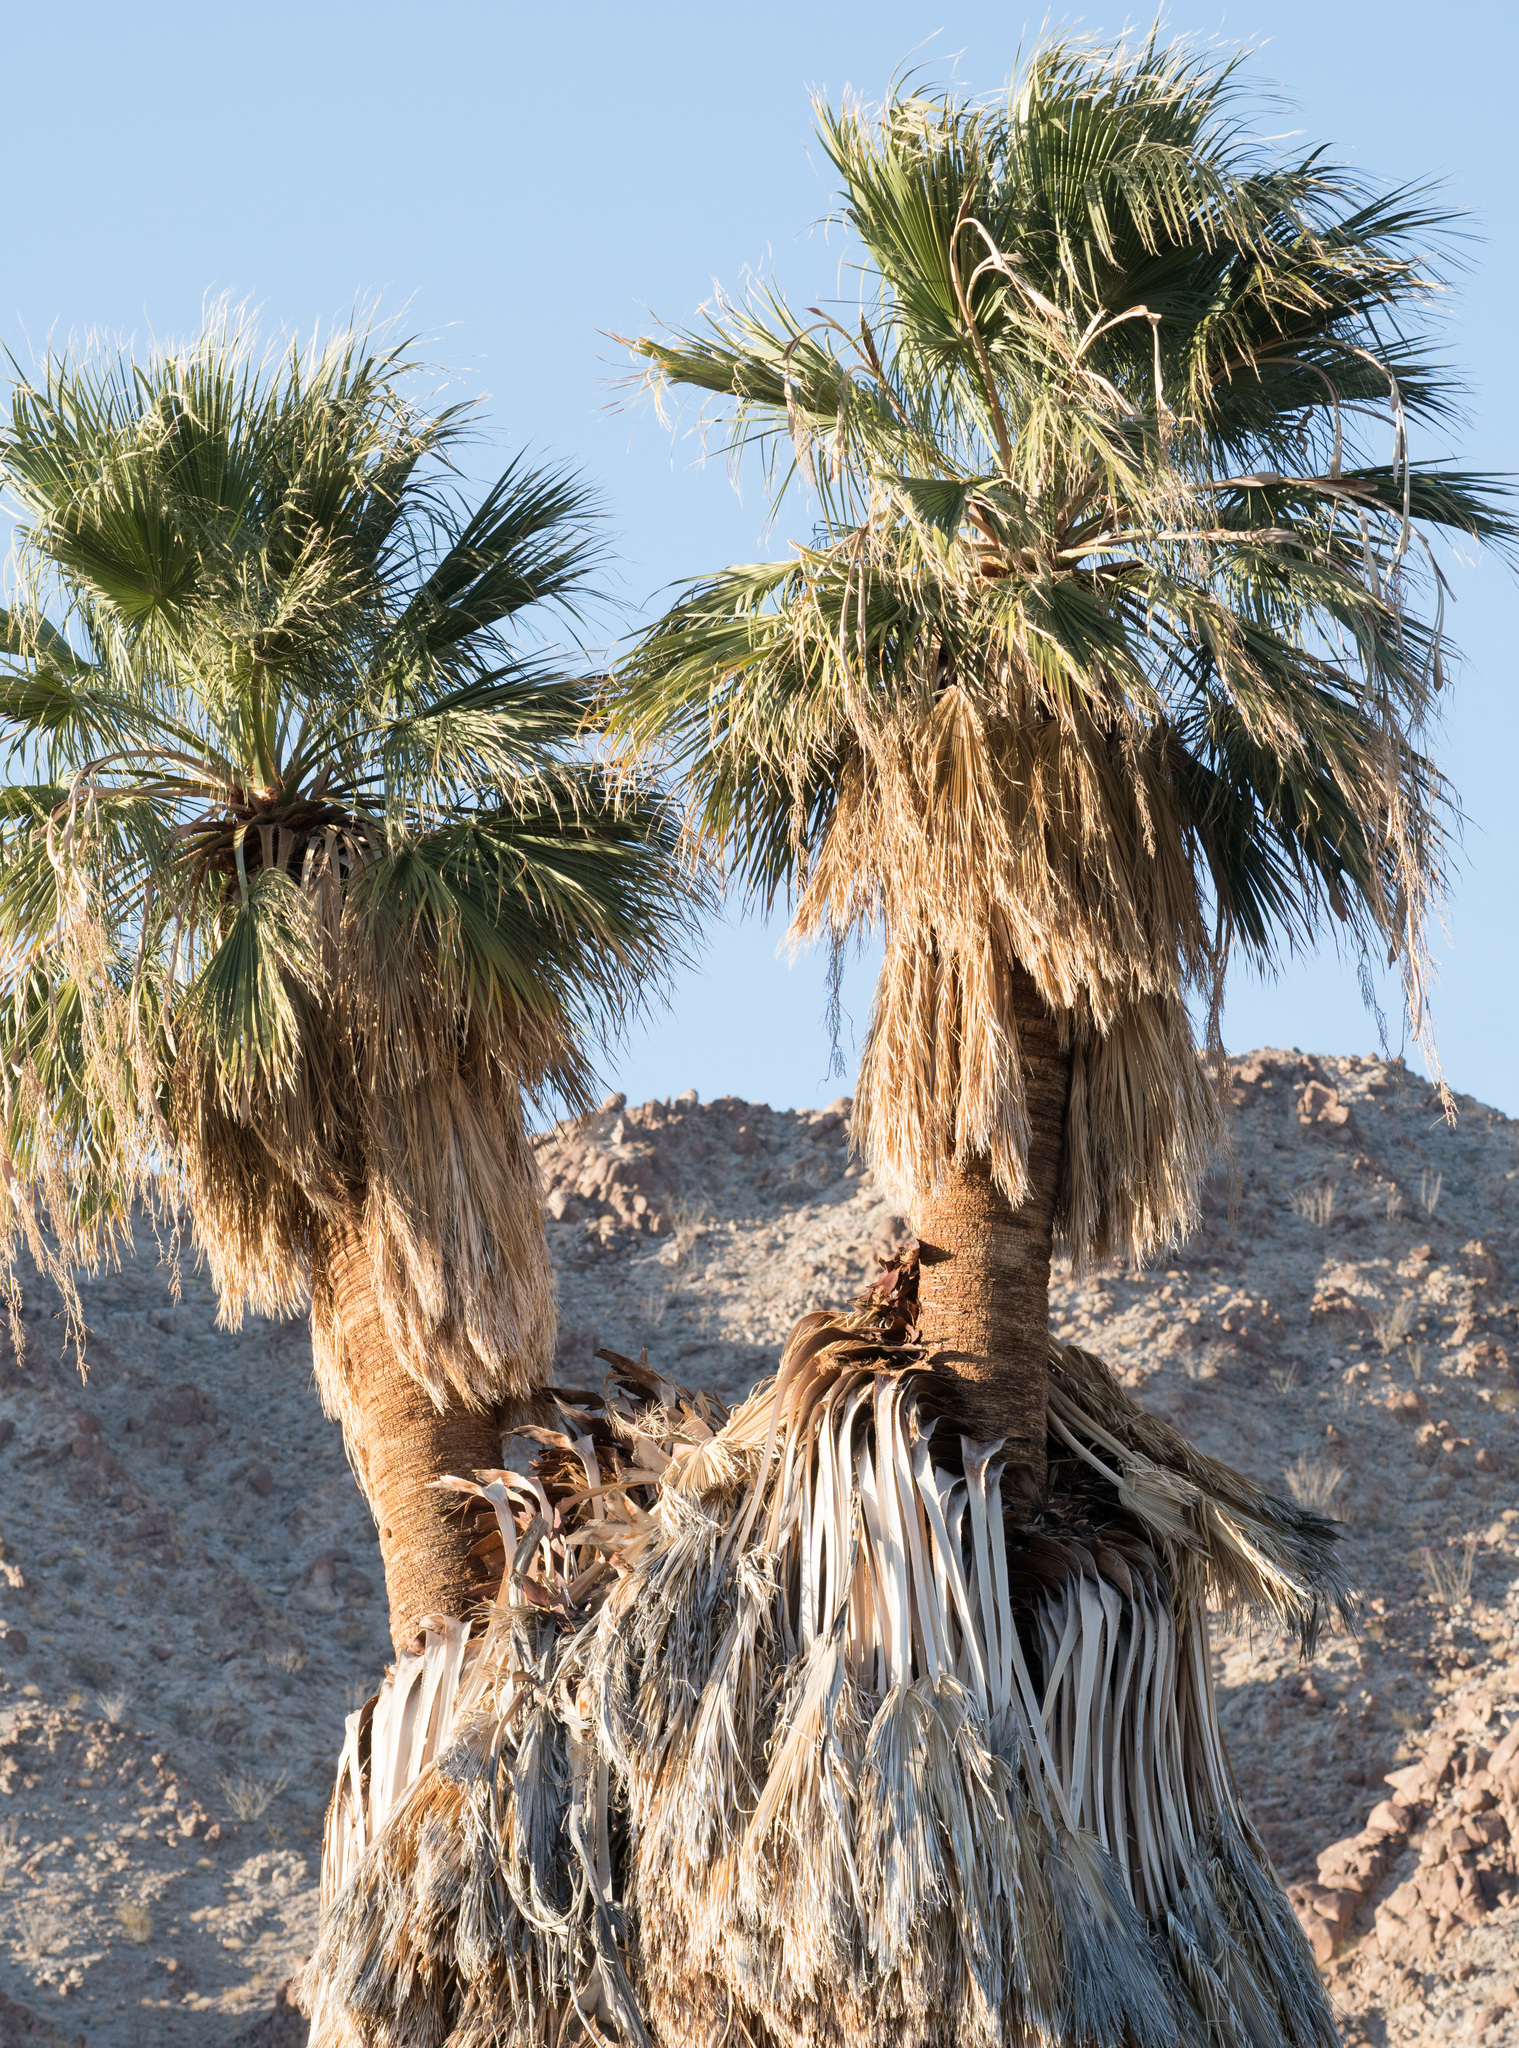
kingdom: Plantae
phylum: Tracheophyta
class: Liliopsida
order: Arecales
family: Arecaceae
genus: Washingtonia
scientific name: Washingtonia filifera
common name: California fan palm
